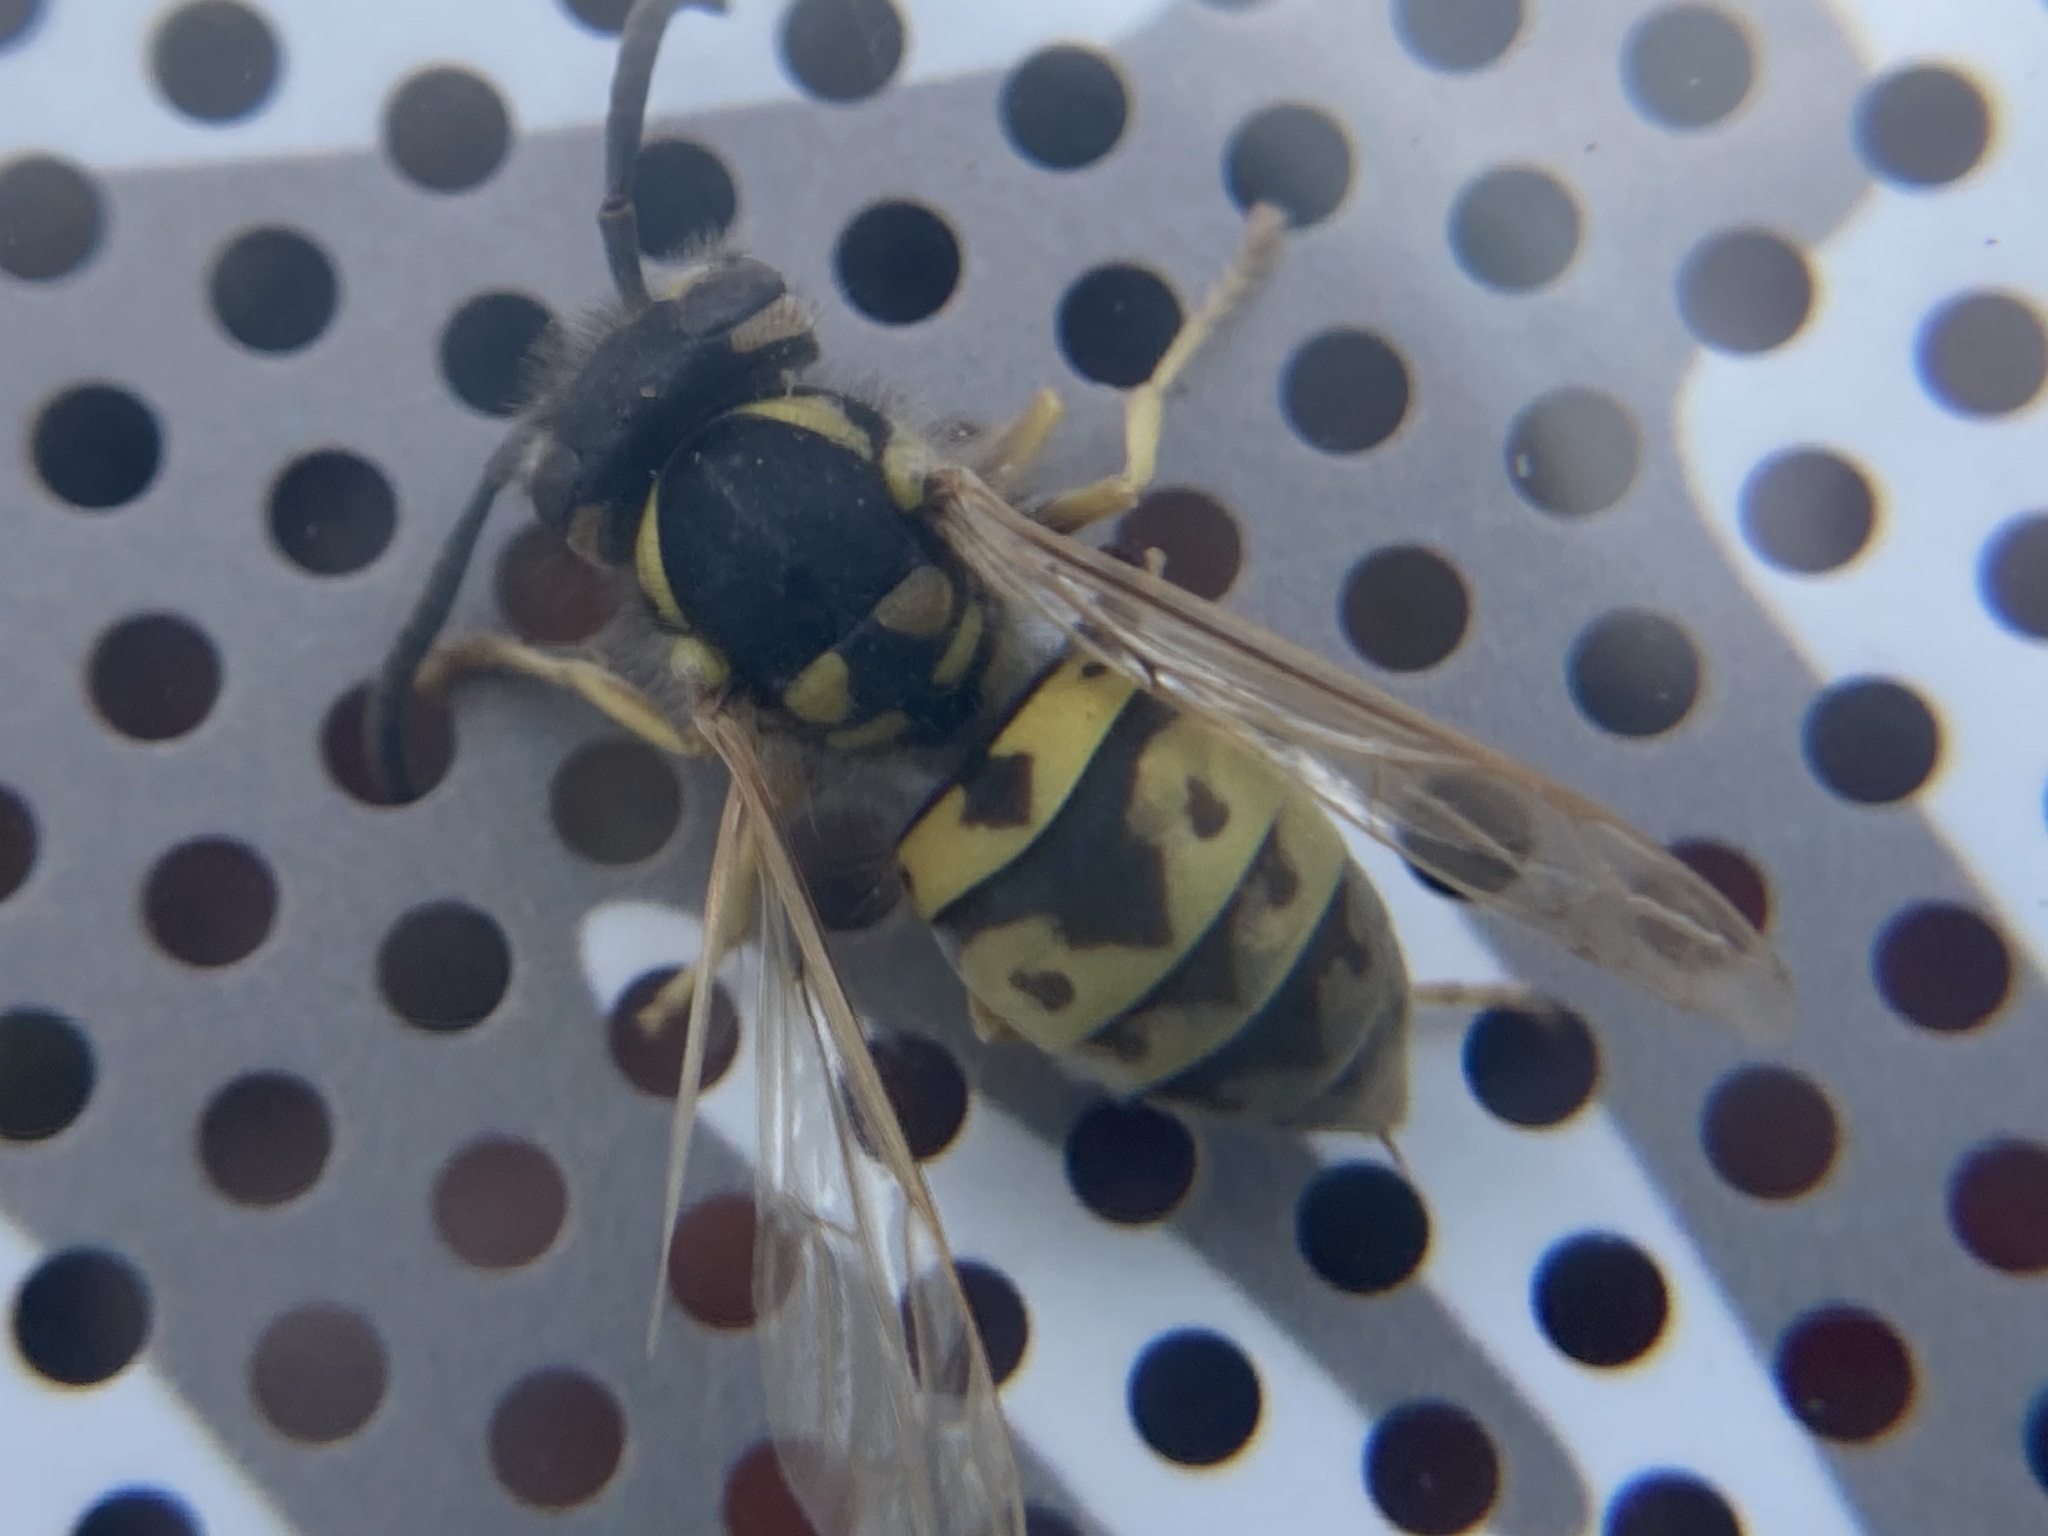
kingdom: Animalia
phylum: Arthropoda
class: Insecta
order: Hymenoptera
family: Vespidae
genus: Vespula
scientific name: Vespula germanica
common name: German wasp
